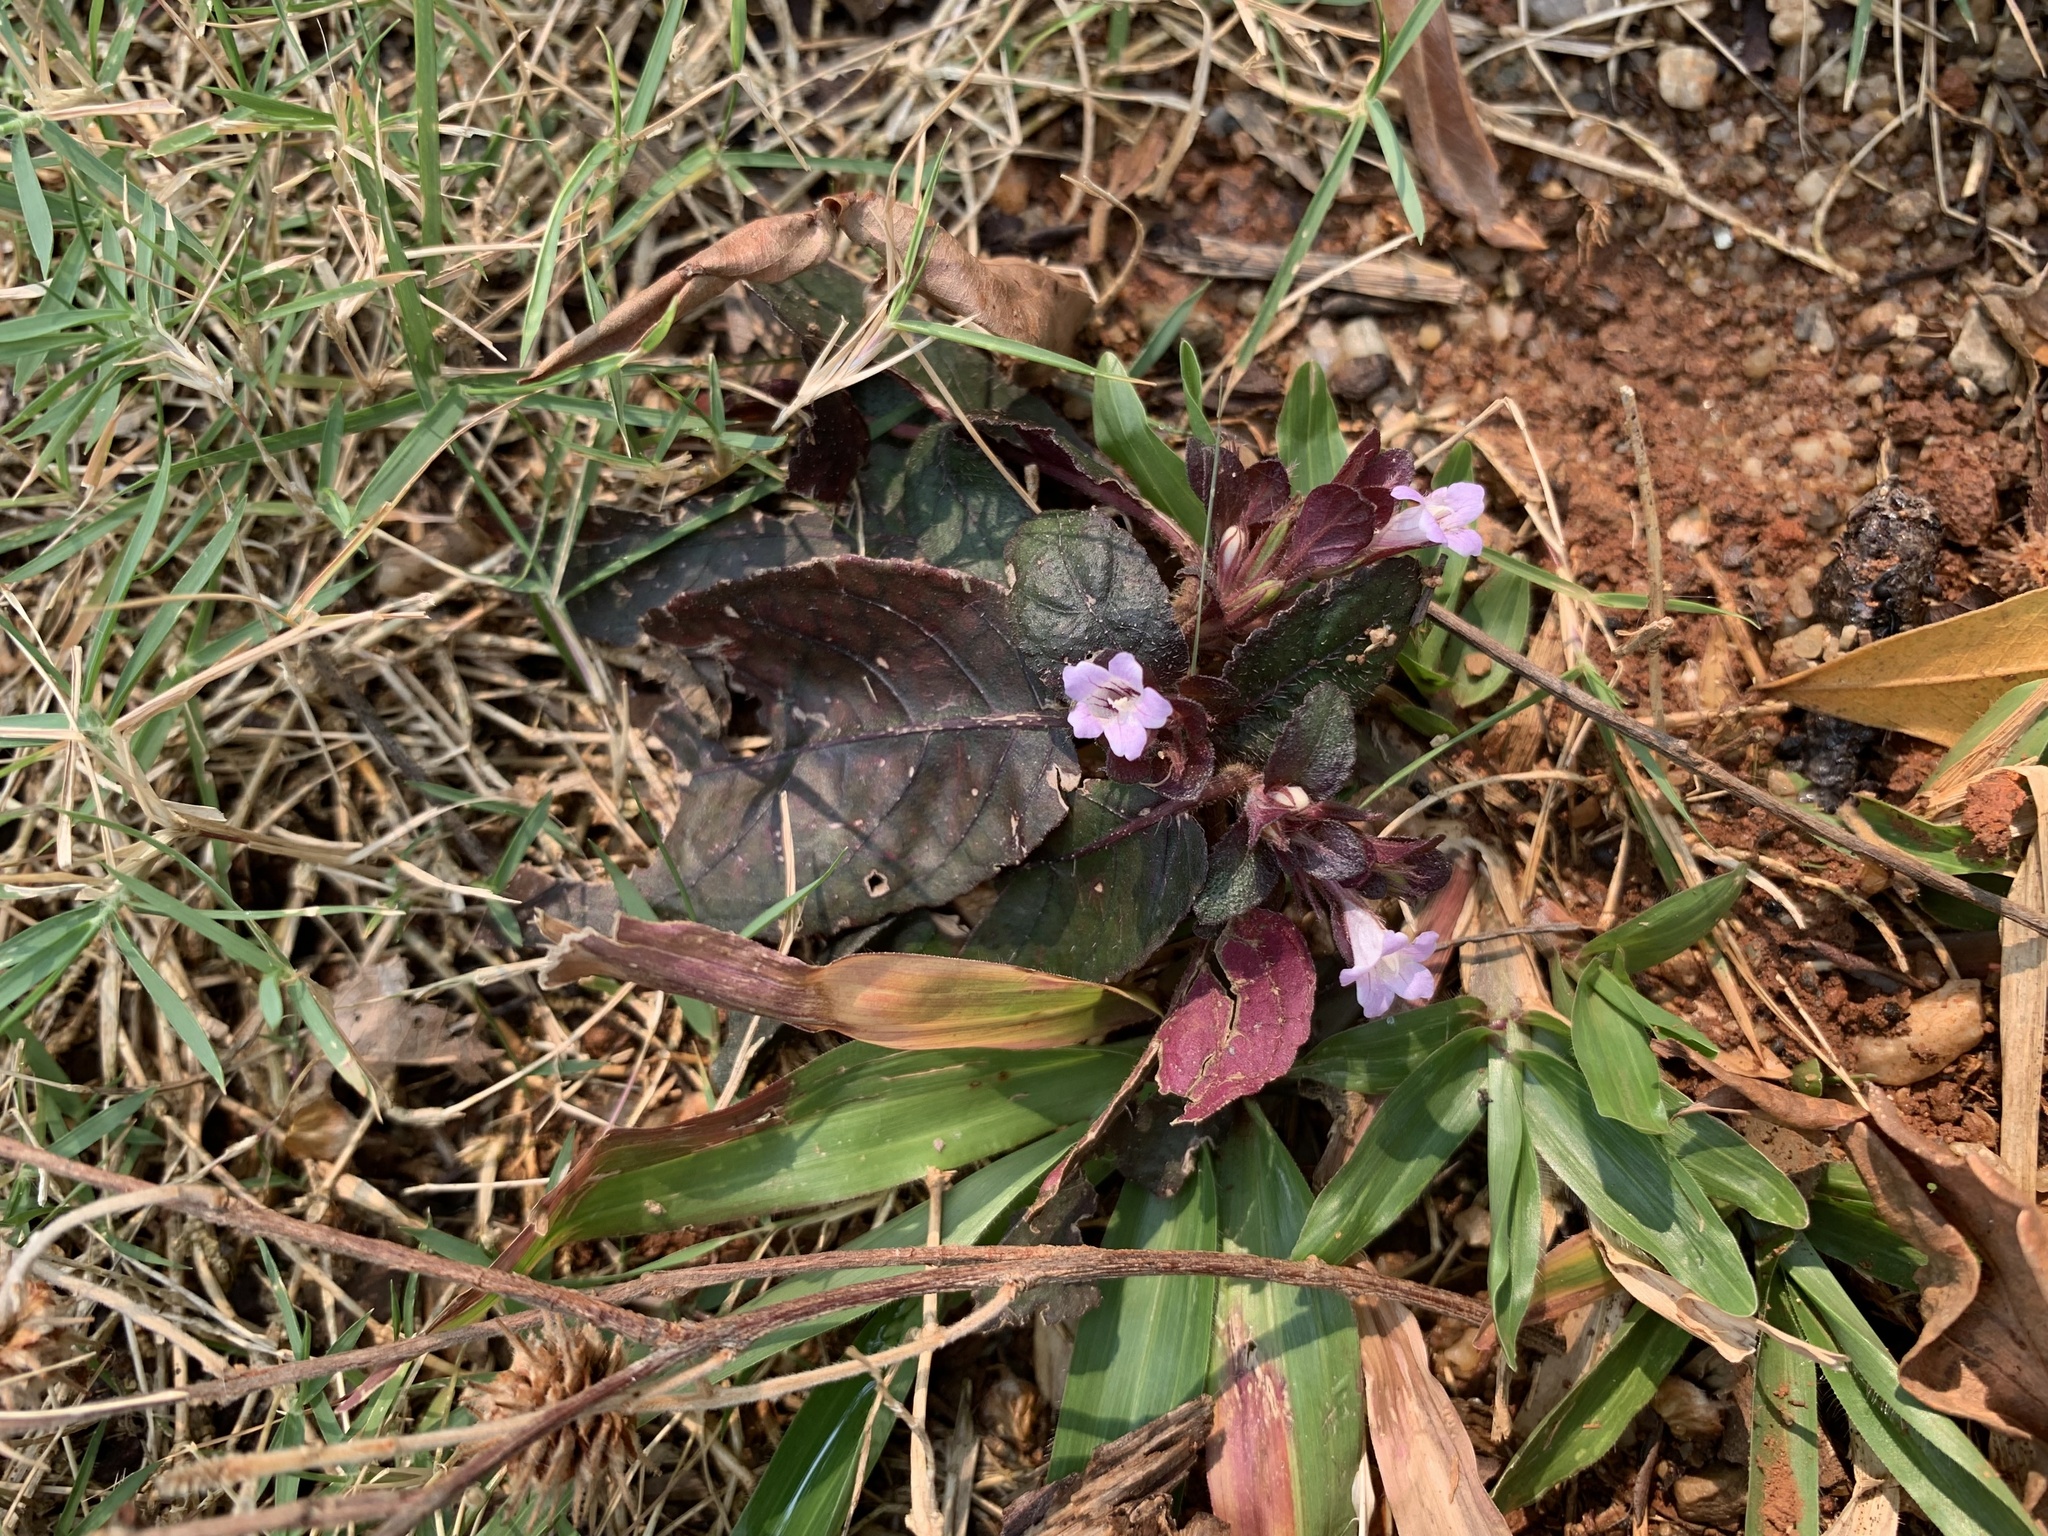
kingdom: Plantae
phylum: Tracheophyta
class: Magnoliopsida
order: Lamiales
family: Acanthaceae
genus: Strobilanthes
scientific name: Strobilanthes reptans
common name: Acanthaceae
